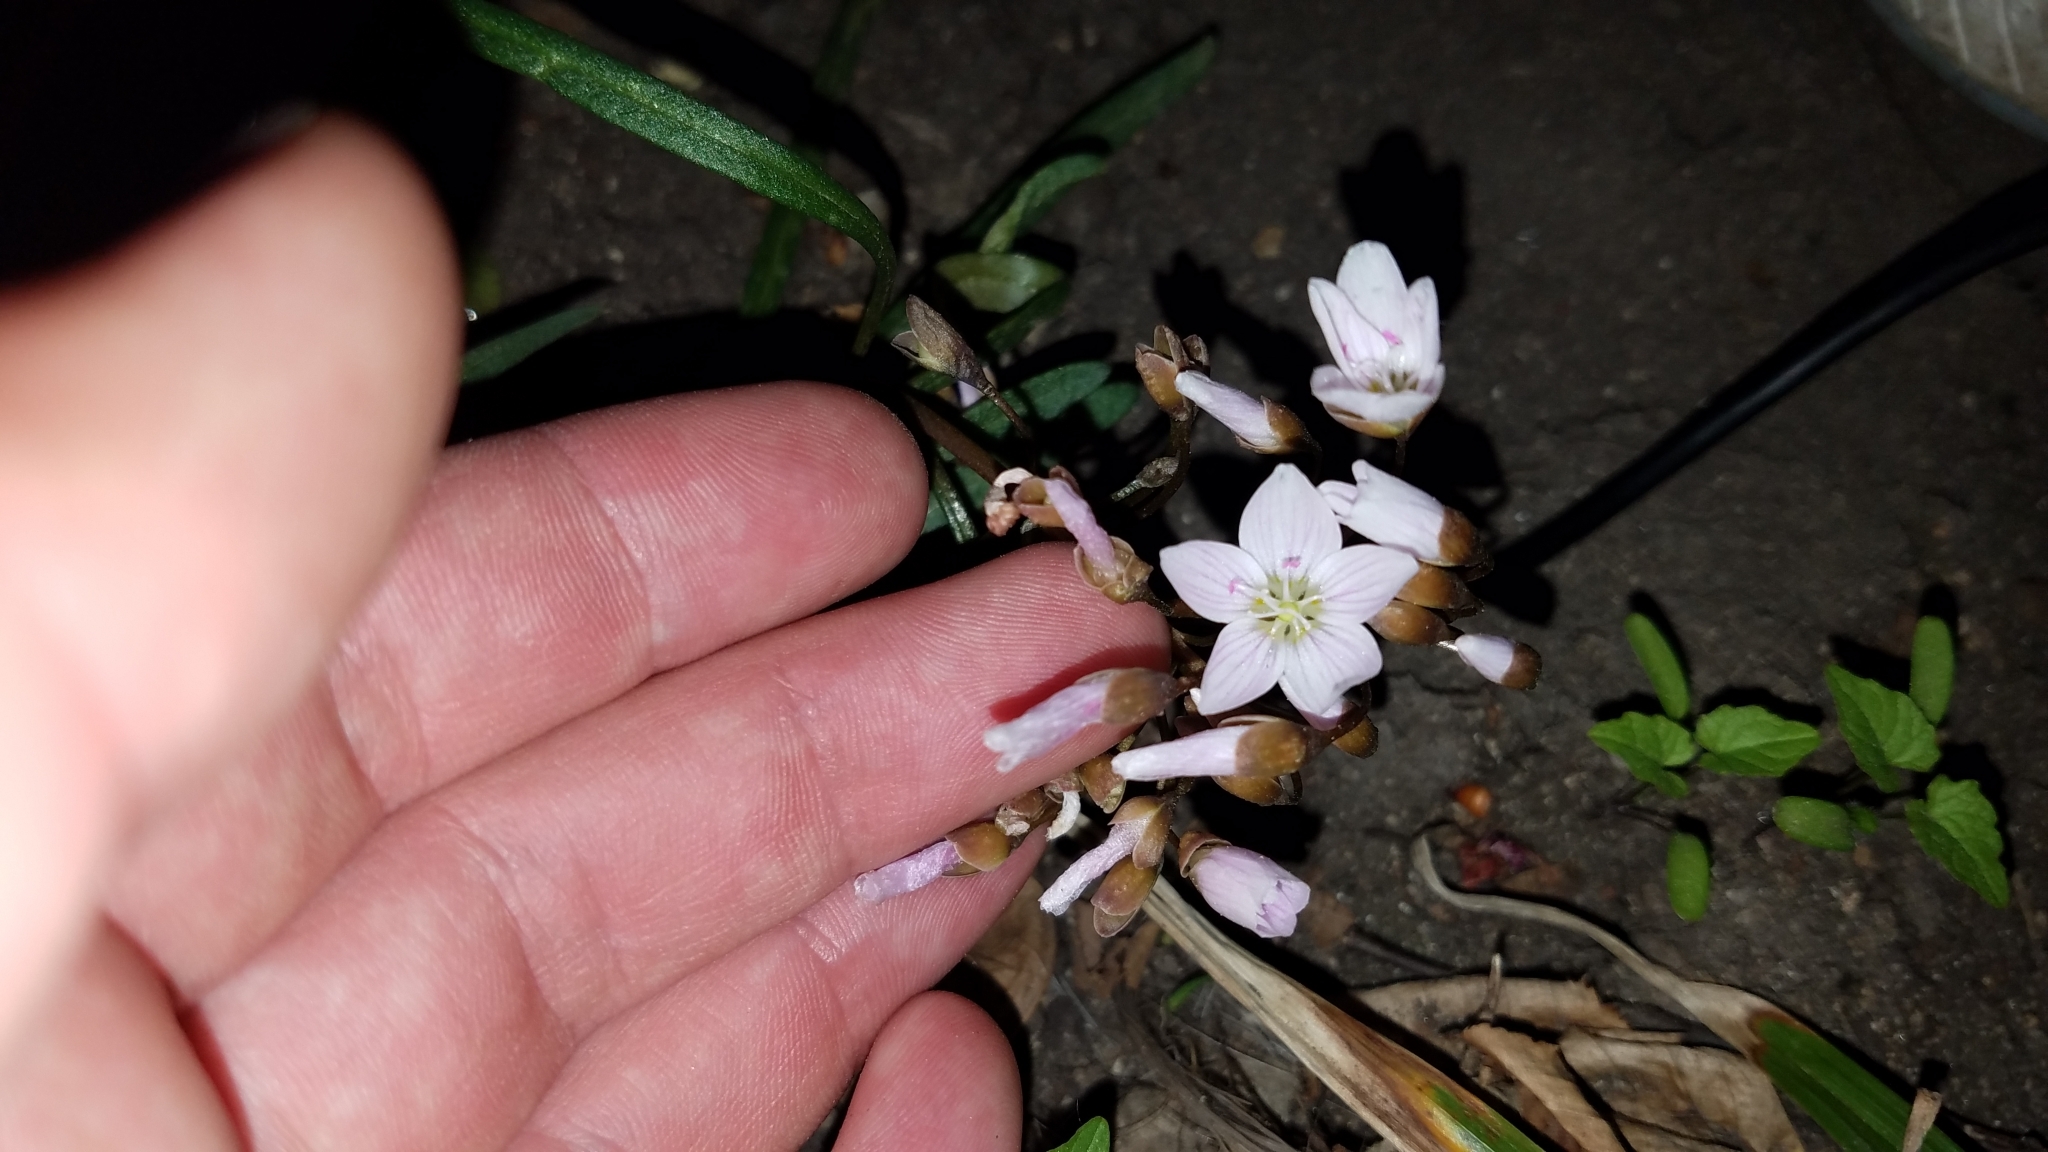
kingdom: Plantae
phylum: Tracheophyta
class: Magnoliopsida
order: Caryophyllales
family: Montiaceae
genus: Claytonia
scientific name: Claytonia virginica
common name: Virginia springbeauty
